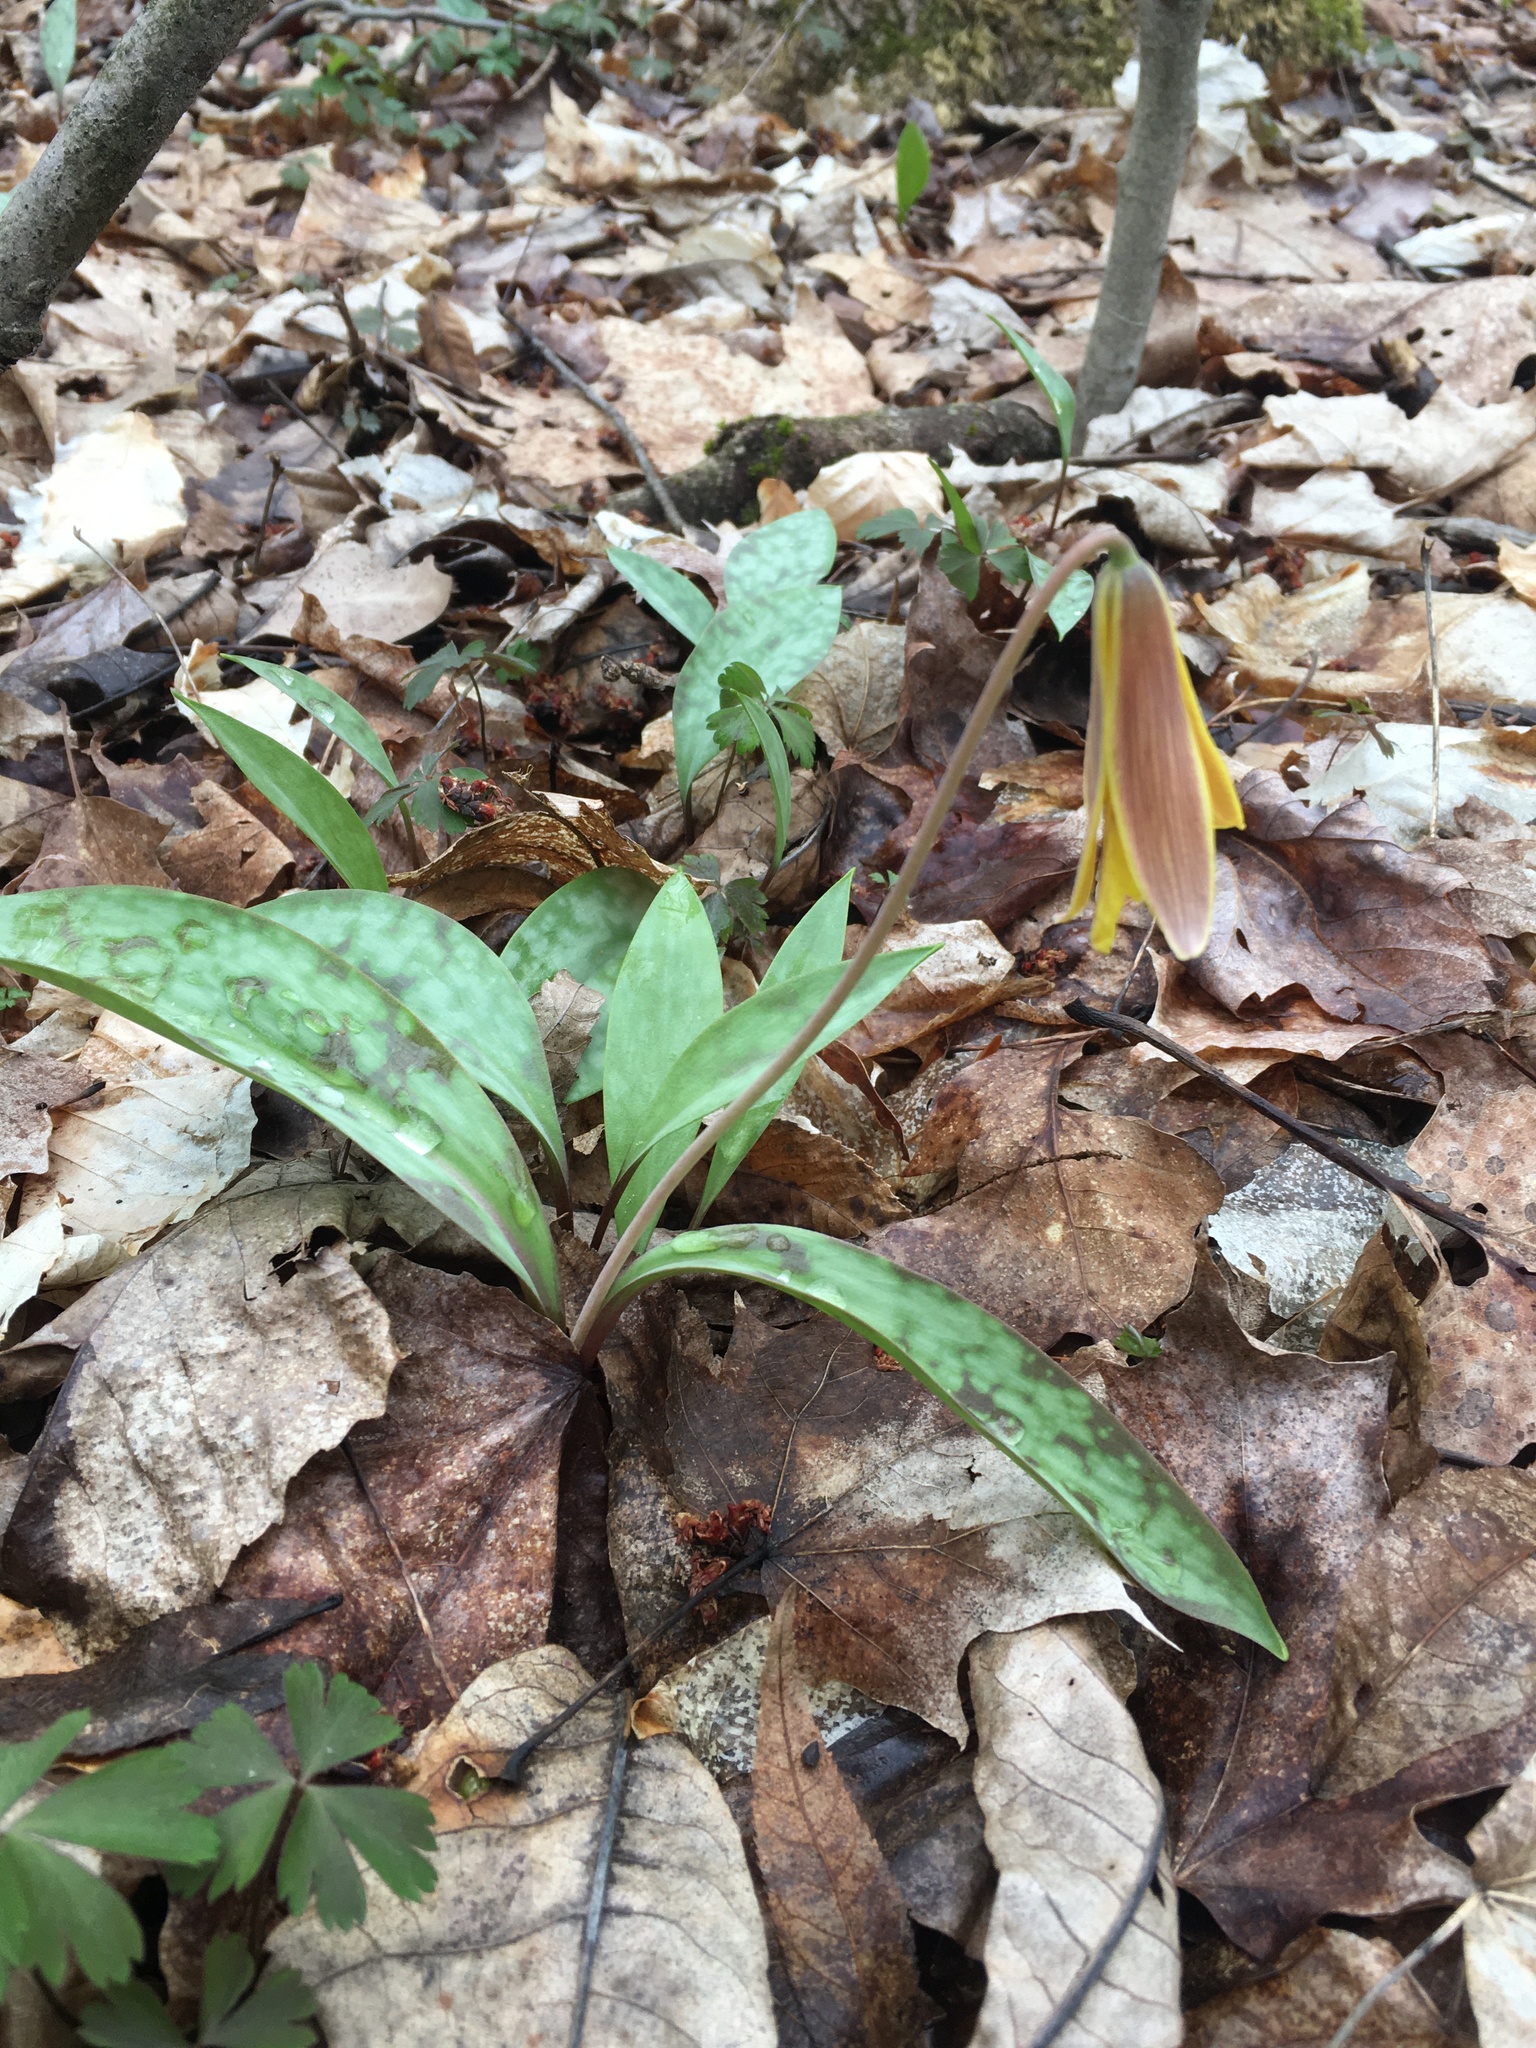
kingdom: Plantae
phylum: Tracheophyta
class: Liliopsida
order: Liliales
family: Liliaceae
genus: Erythronium
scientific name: Erythronium americanum
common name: Yellow adder's-tongue
